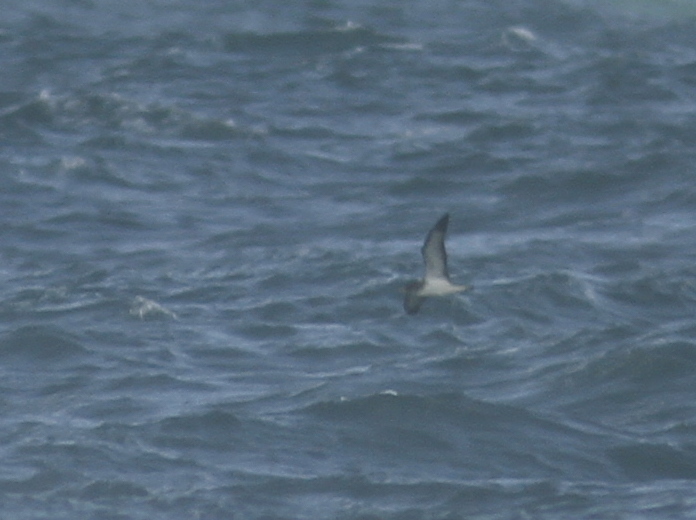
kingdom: Animalia
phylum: Chordata
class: Aves
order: Procellariiformes
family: Procellariidae
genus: Calonectris
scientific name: Calonectris diomedea
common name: Cory's shearwater
